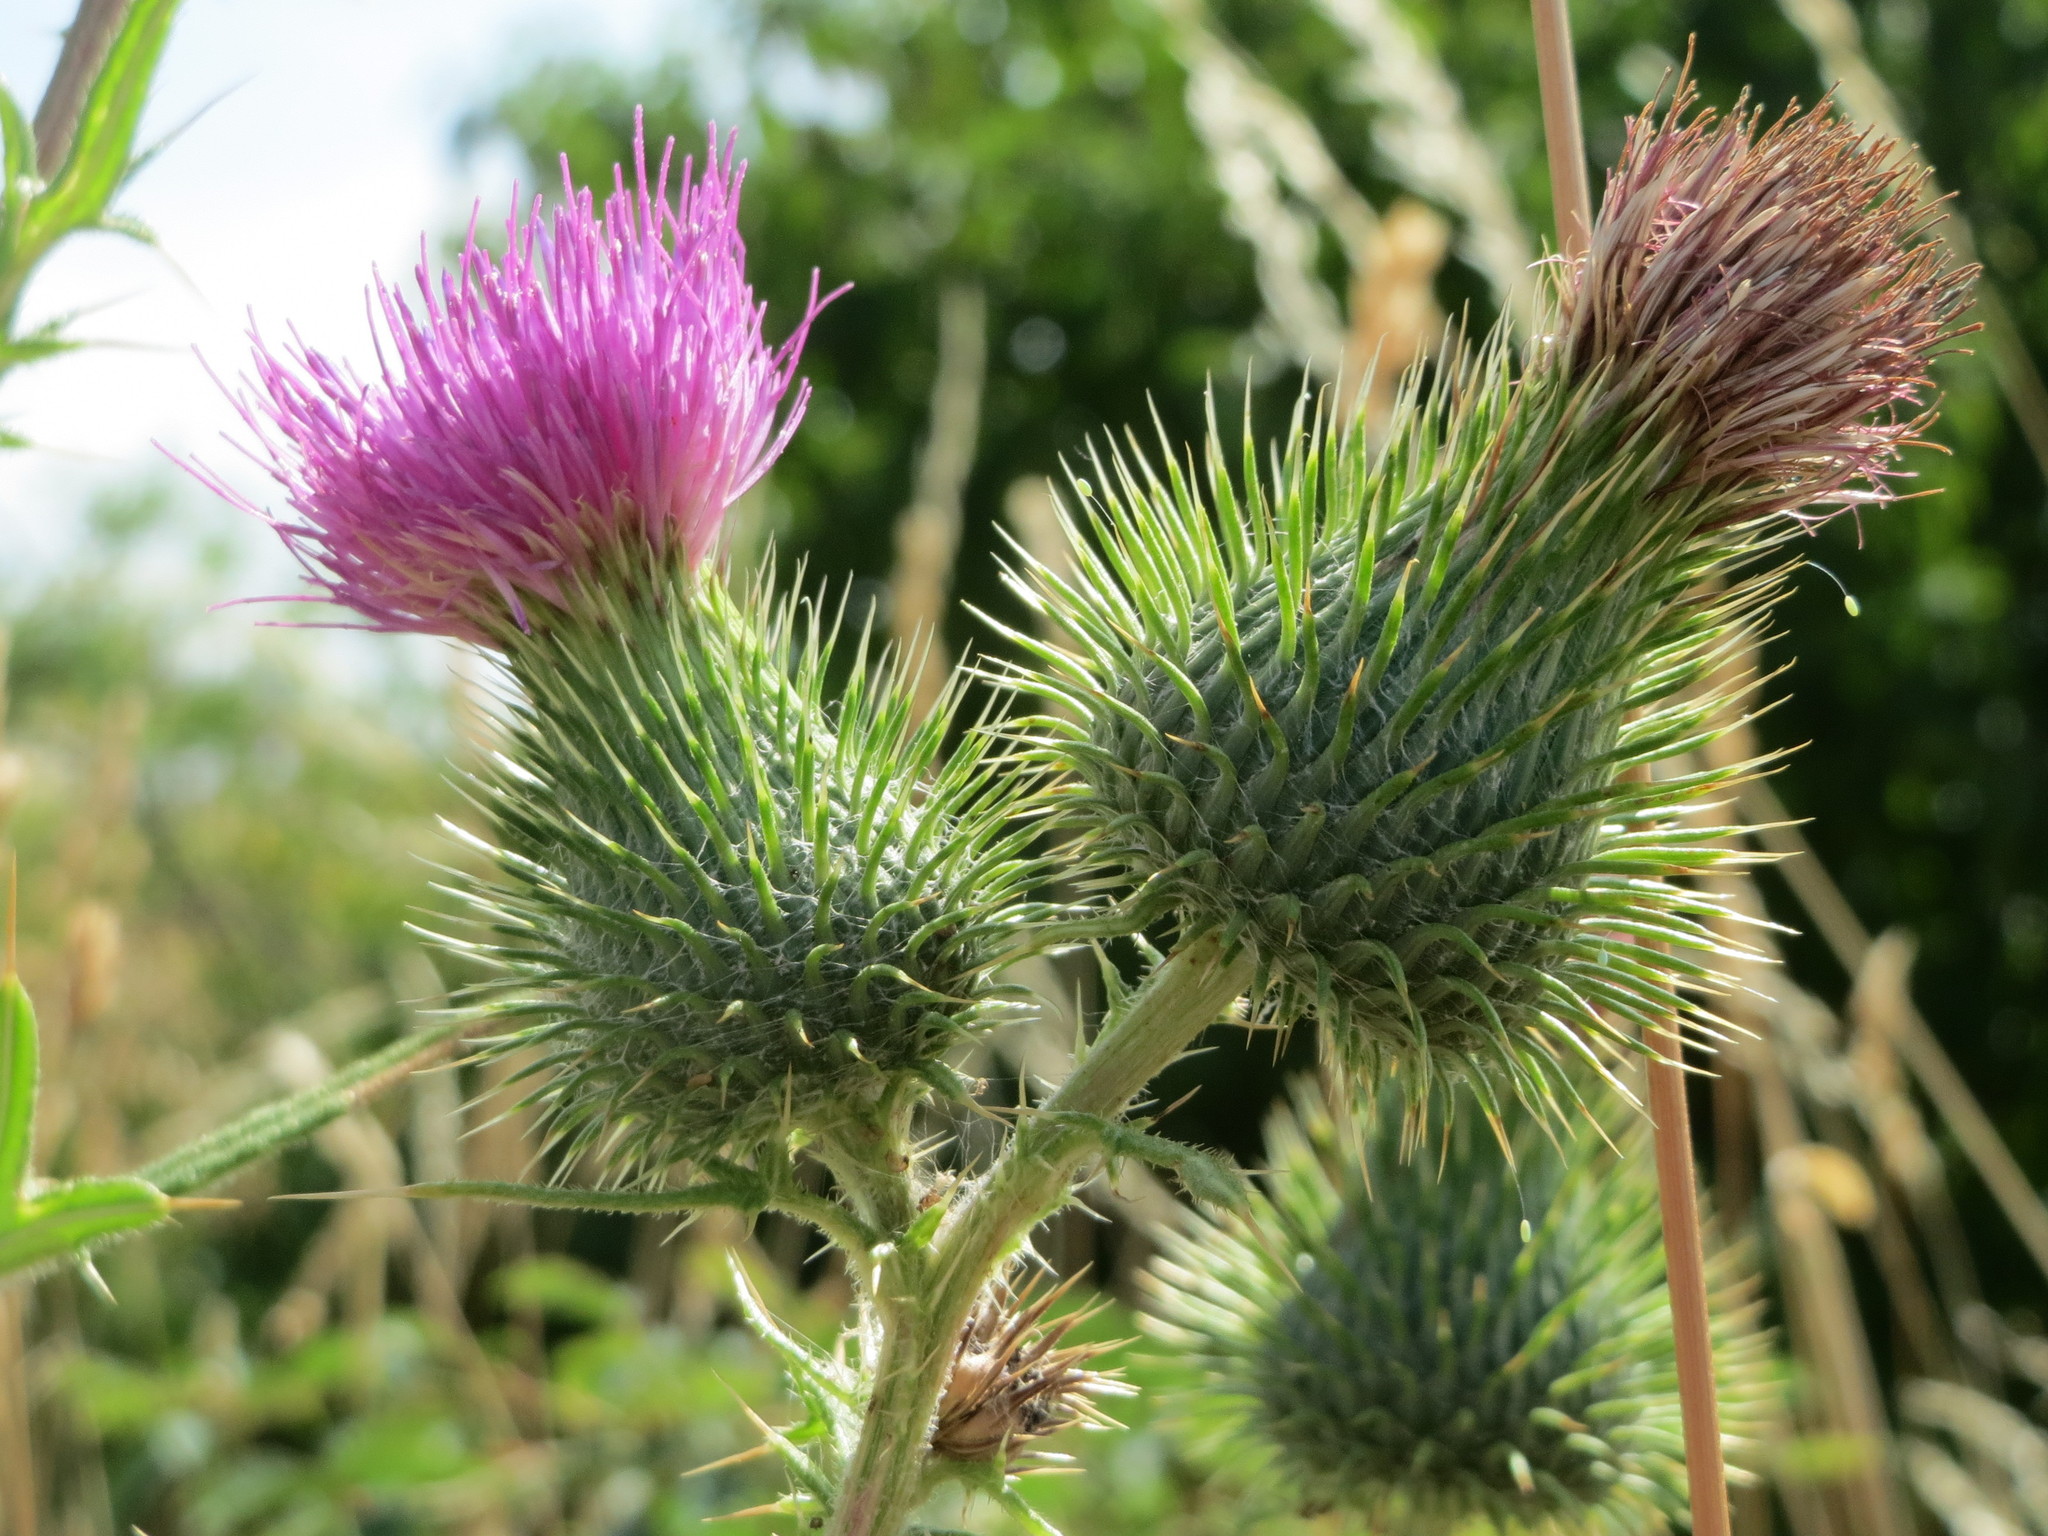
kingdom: Plantae
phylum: Tracheophyta
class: Magnoliopsida
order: Asterales
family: Asteraceae
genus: Cirsium
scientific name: Cirsium vulgare
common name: Bull thistle
